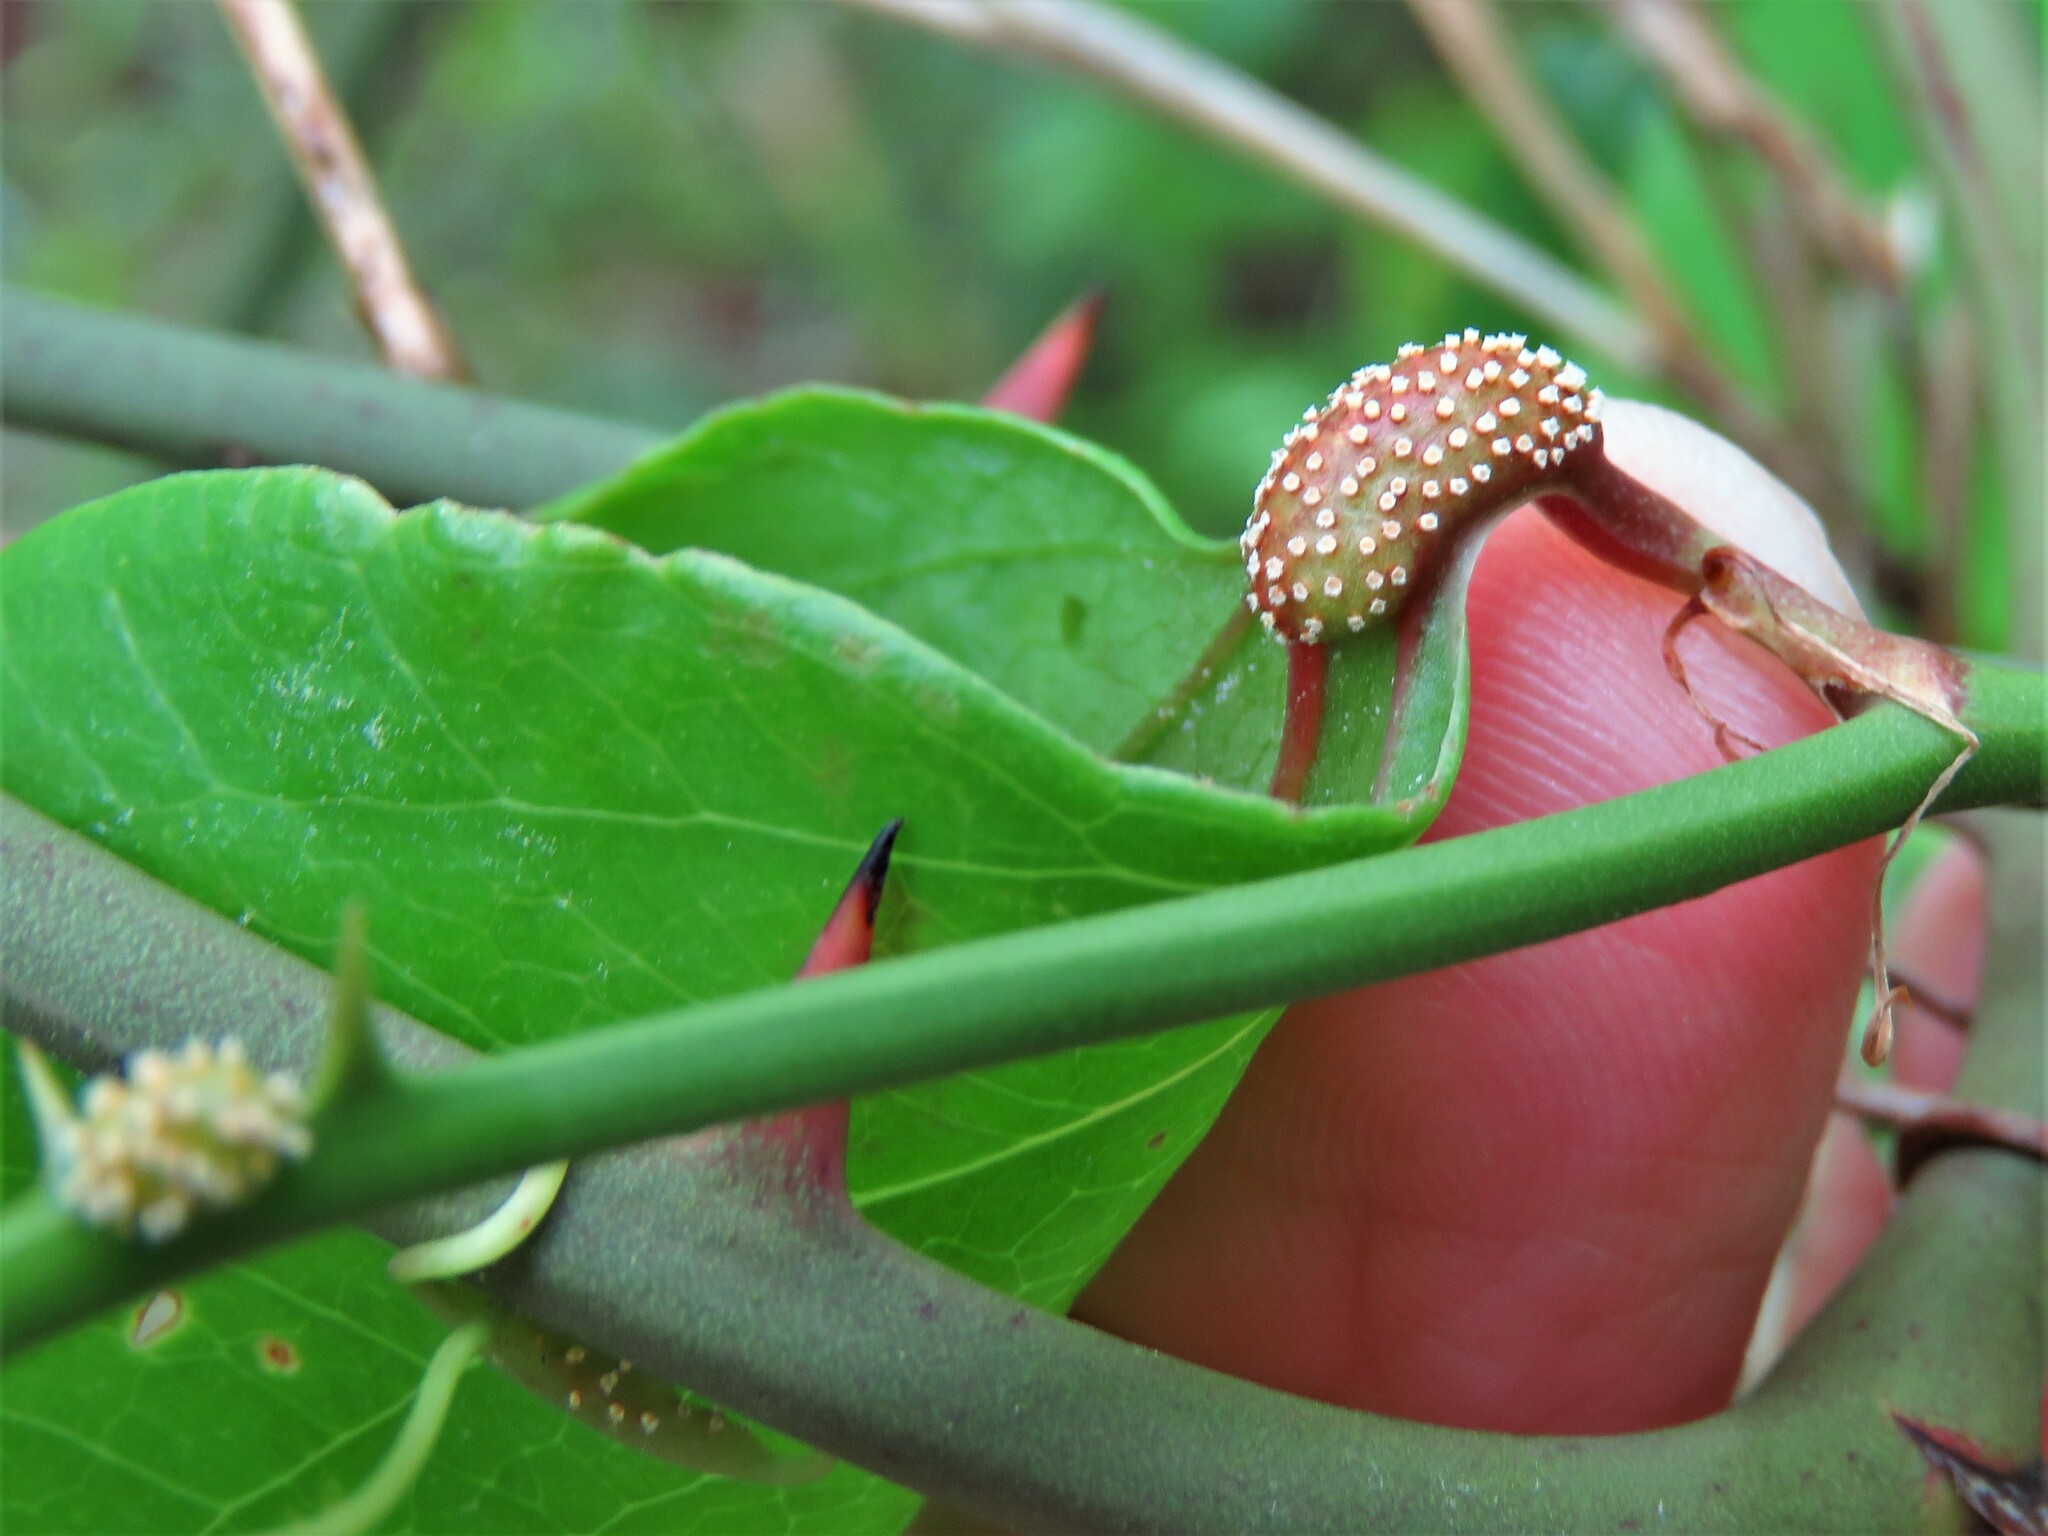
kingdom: Fungi
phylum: Basidiomycota
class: Pucciniomycetes
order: Pucciniales
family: Pucciniaceae
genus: Puccinia
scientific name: Puccinia smilacis
